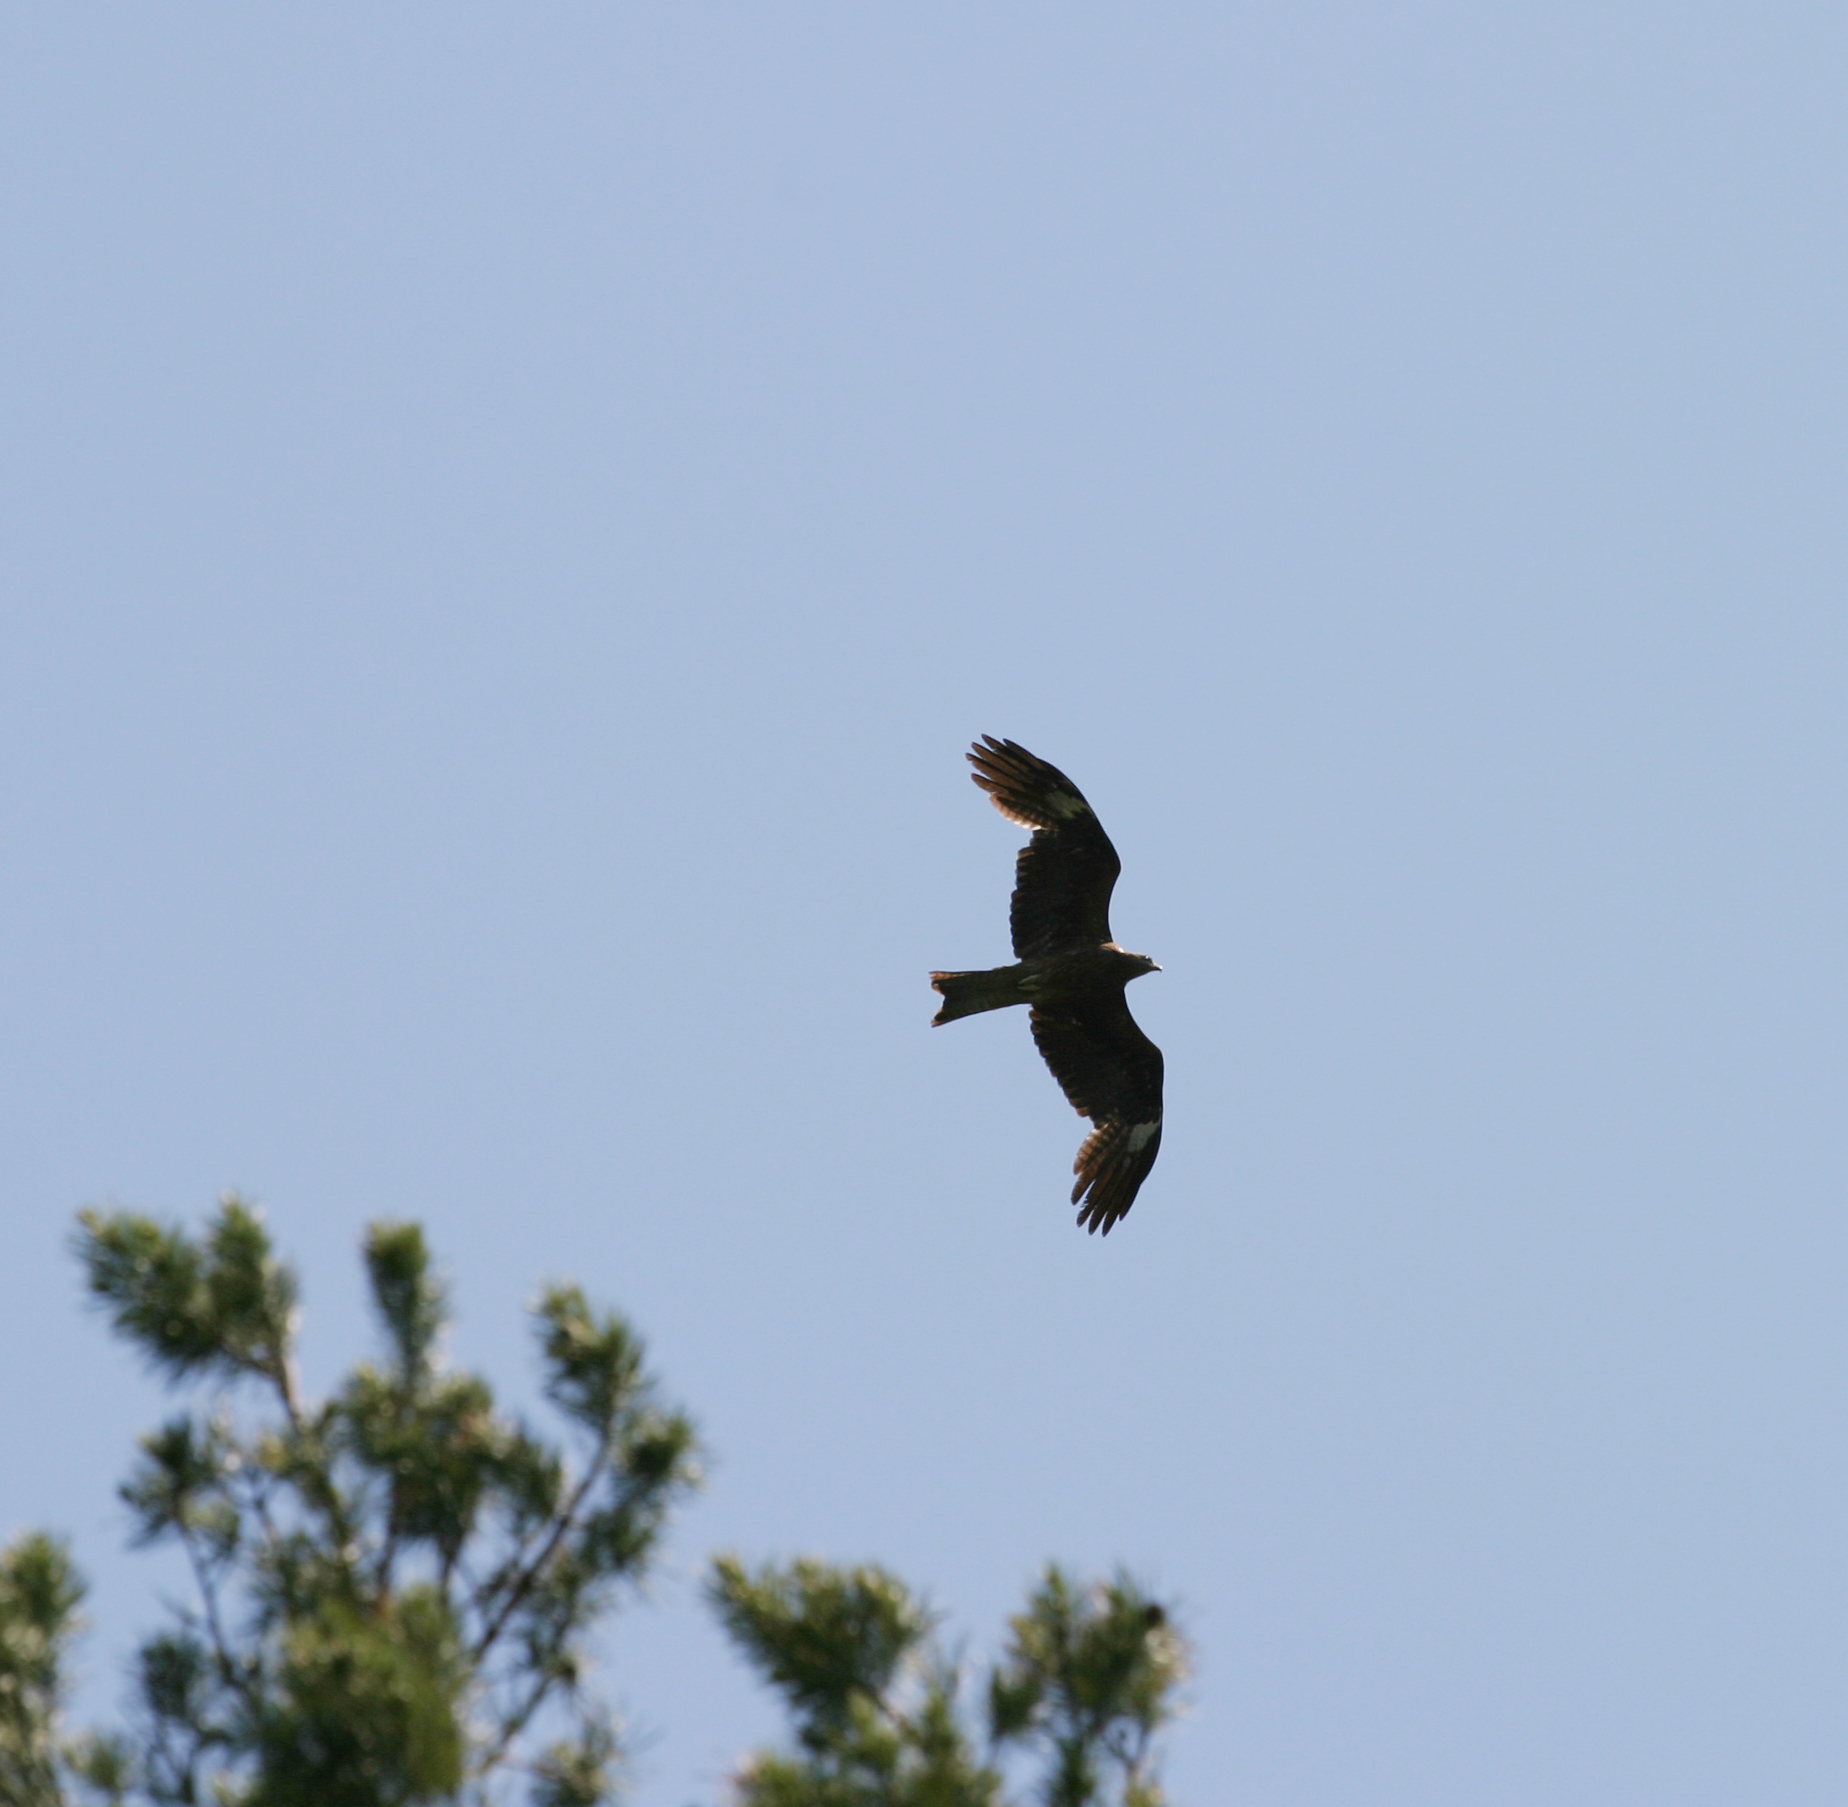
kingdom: Animalia
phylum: Chordata
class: Aves
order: Accipitriformes
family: Accipitridae
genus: Milvus
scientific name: Milvus migrans
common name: Black kite
